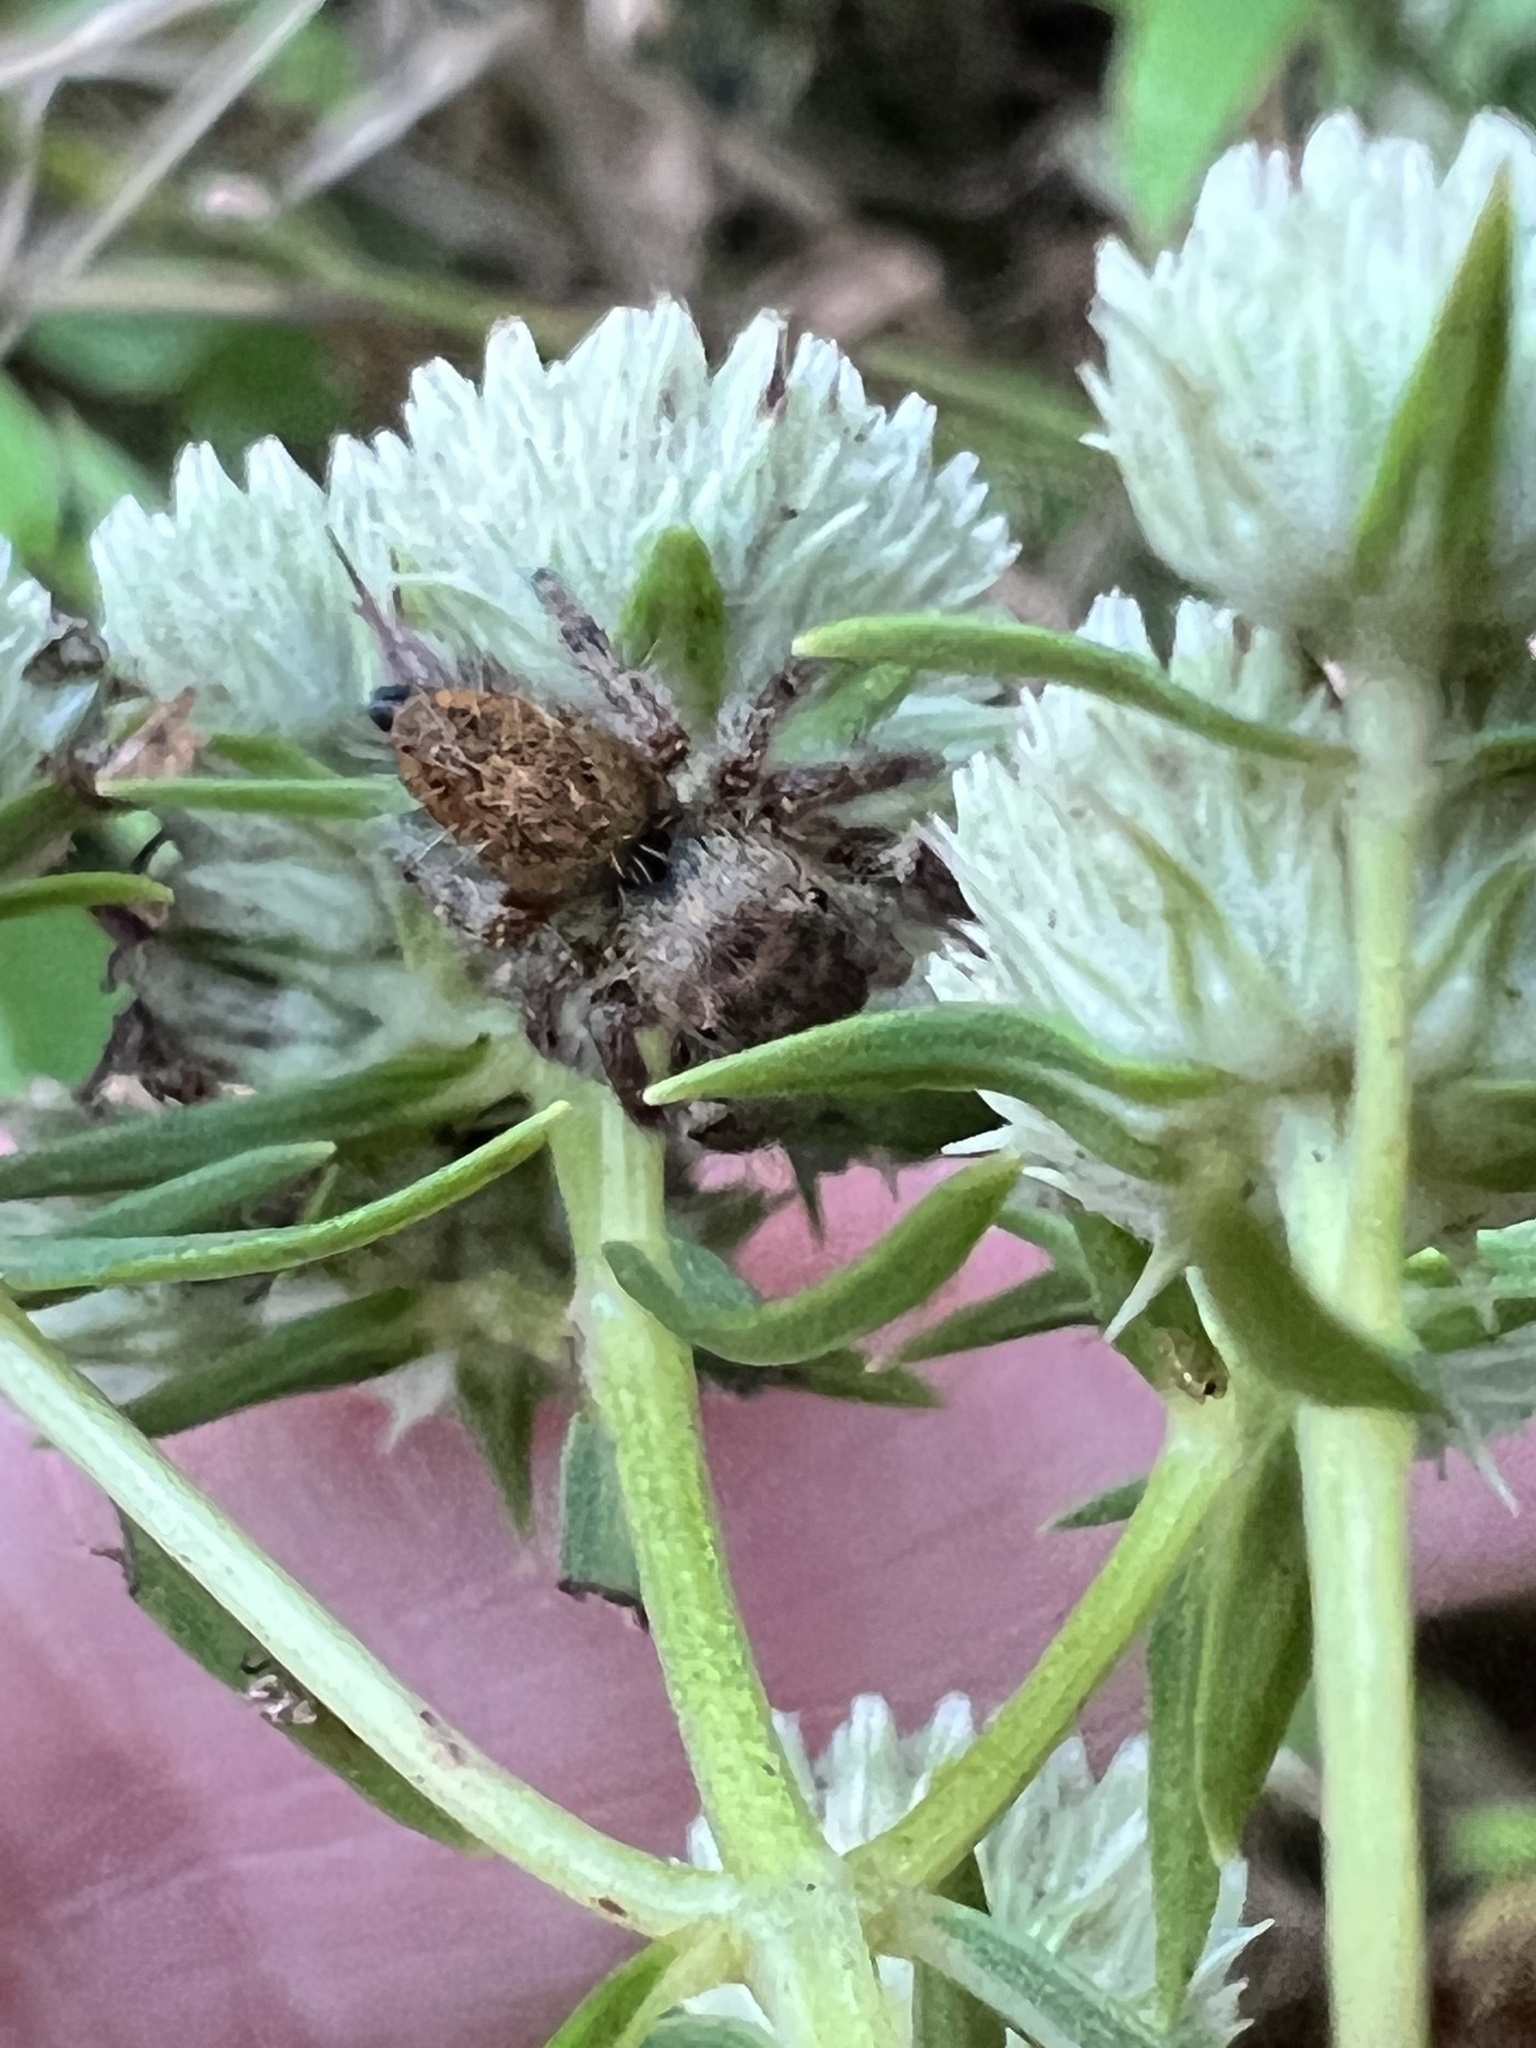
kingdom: Animalia
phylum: Arthropoda
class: Arachnida
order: Araneae
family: Salticidae
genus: Phidippus
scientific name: Phidippus princeps
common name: Grayish jumping spider
